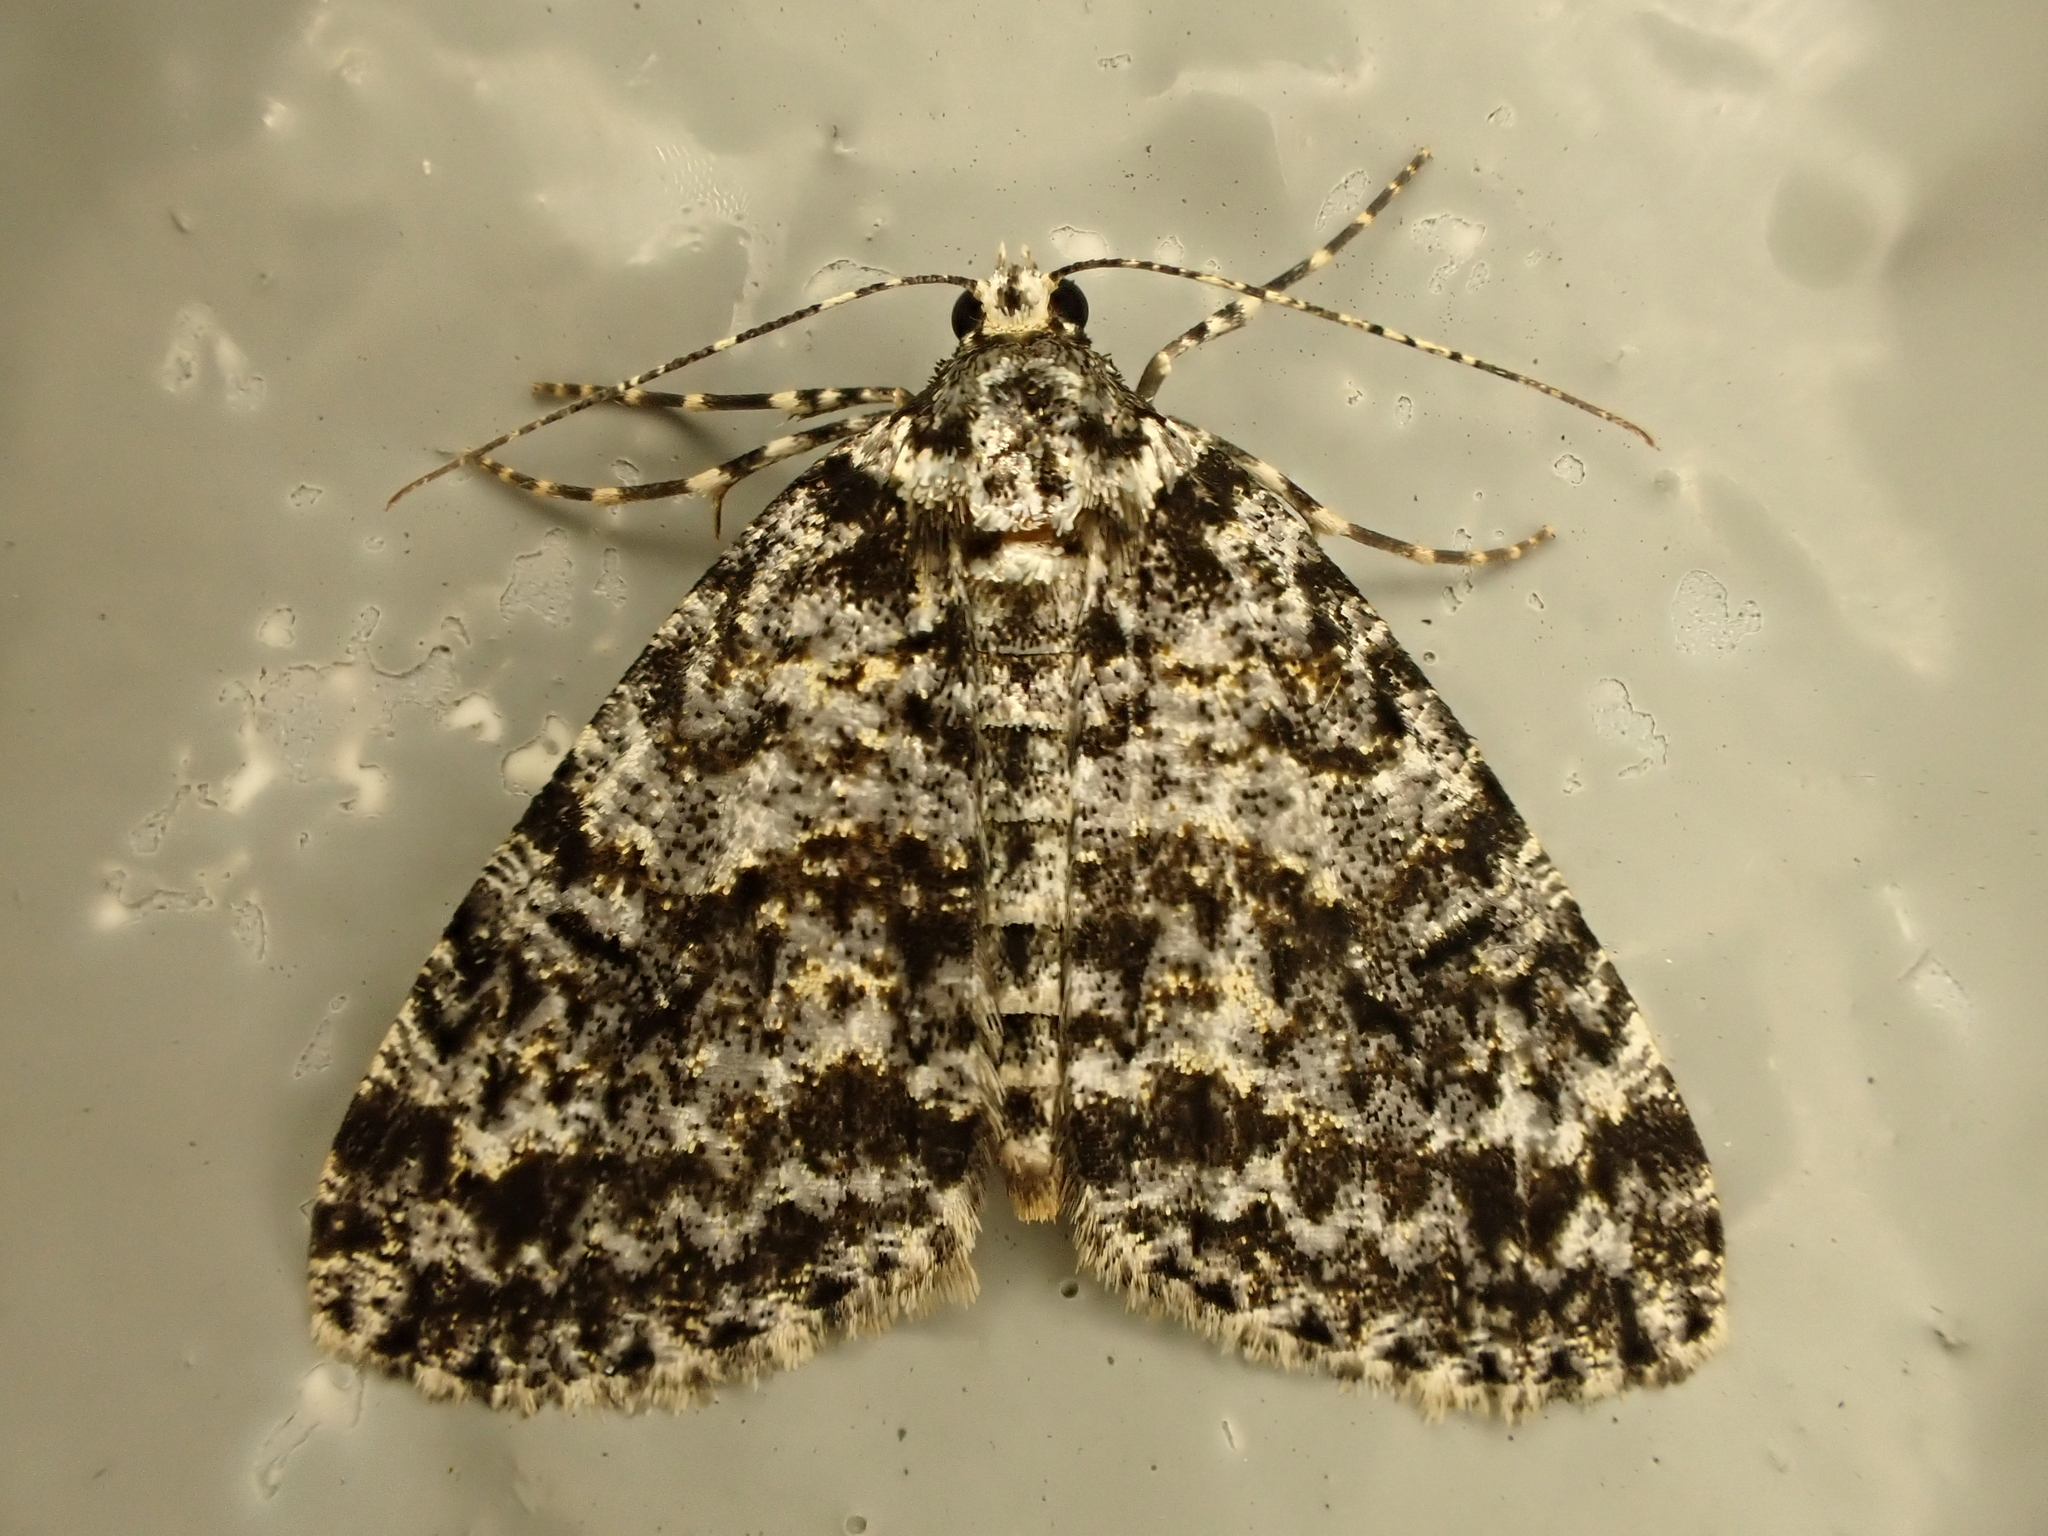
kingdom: Animalia
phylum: Arthropoda
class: Insecta
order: Lepidoptera
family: Geometridae
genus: Pseudocoremia
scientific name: Pseudocoremia monacha
